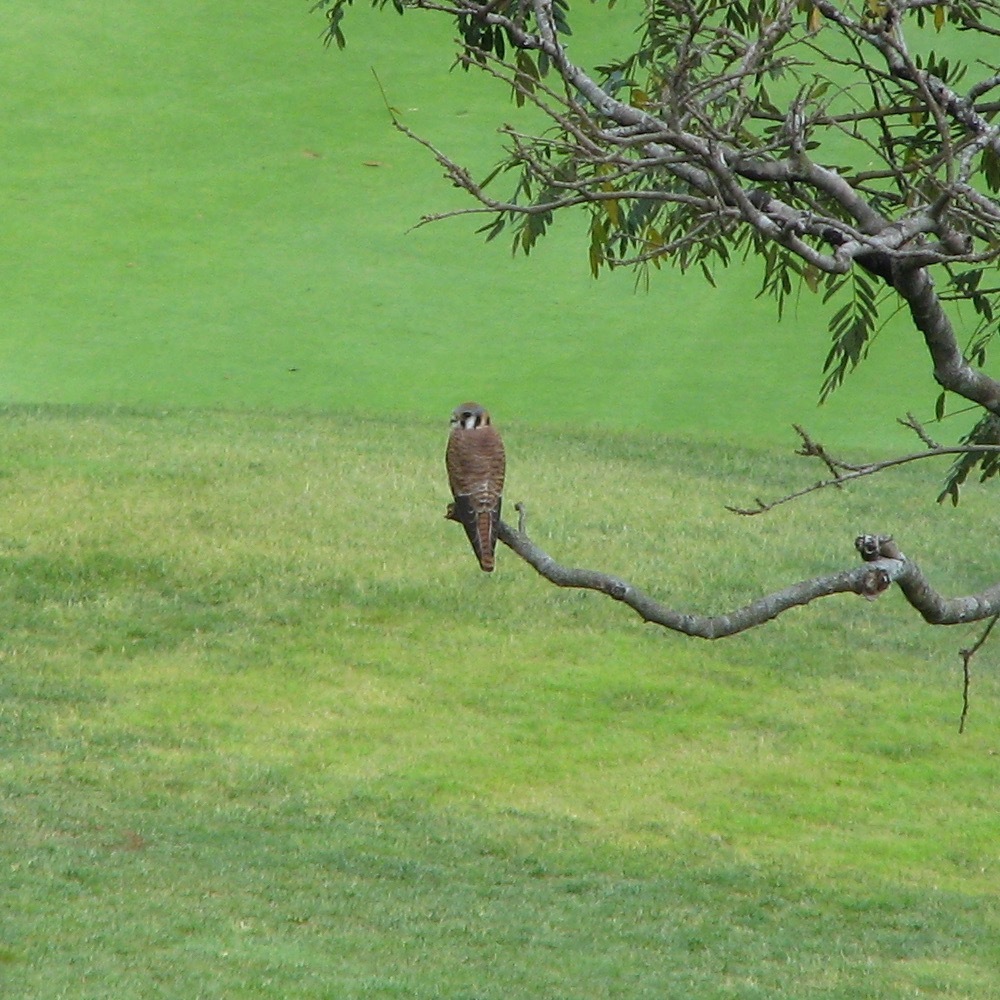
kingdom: Animalia
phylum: Chordata
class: Aves
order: Falconiformes
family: Falconidae
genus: Falco
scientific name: Falco sparverius
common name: American kestrel
